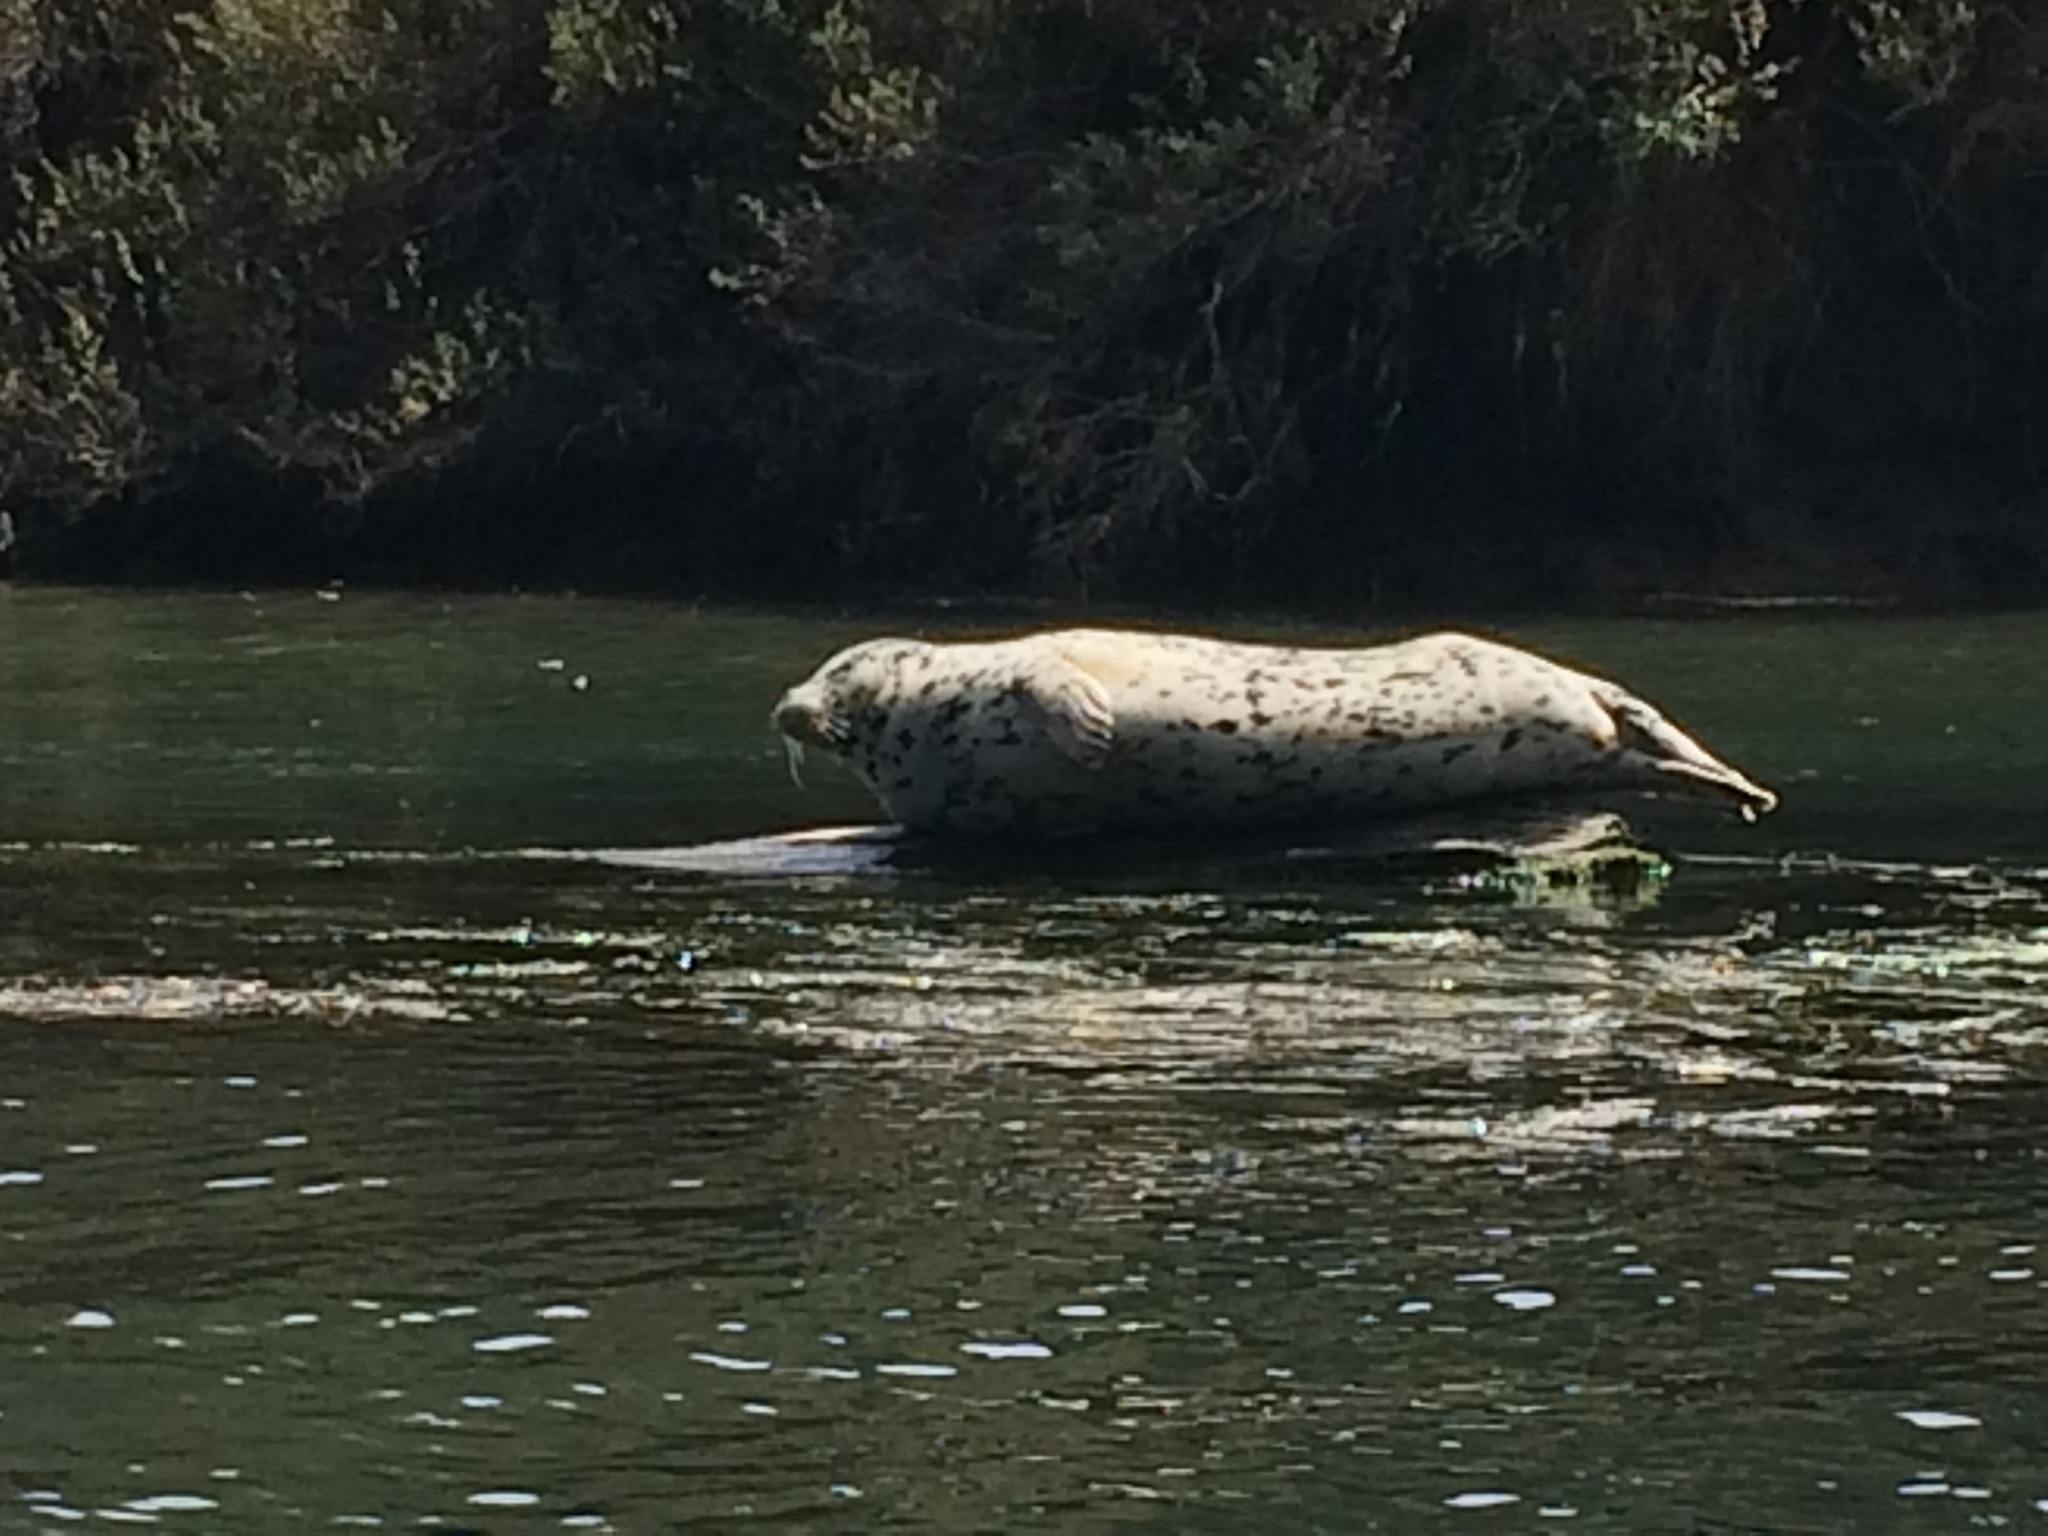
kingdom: Animalia
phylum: Chordata
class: Mammalia
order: Carnivora
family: Phocidae
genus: Phoca
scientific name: Phoca vitulina
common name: Harbor seal
